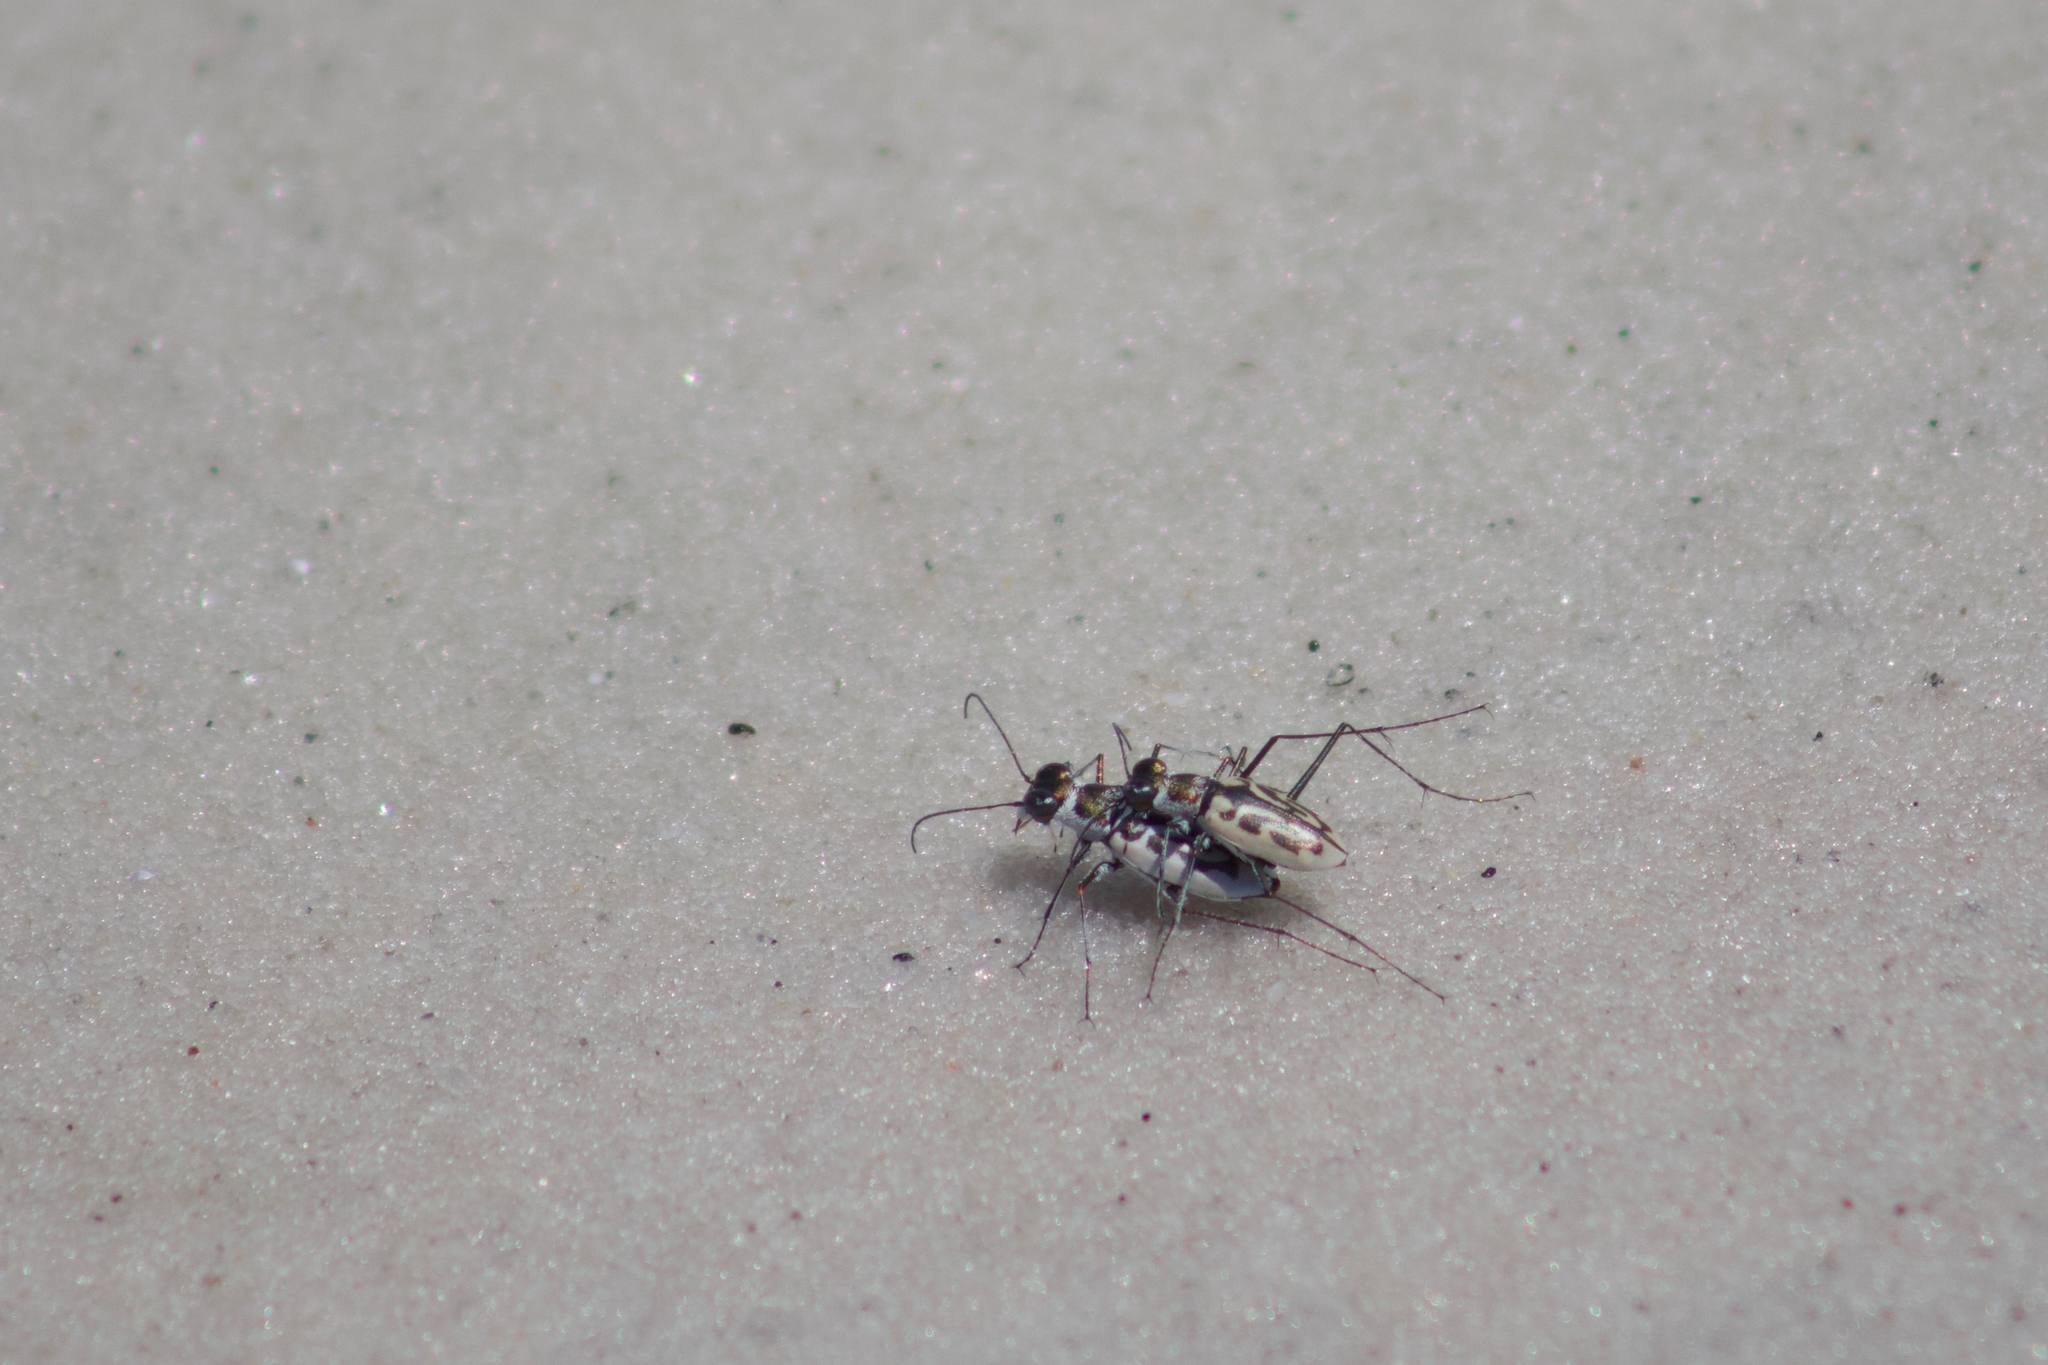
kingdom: Animalia
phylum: Arthropoda
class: Insecta
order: Coleoptera
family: Carabidae
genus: Habroscelimorpha
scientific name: Habroscelimorpha dorsalis
